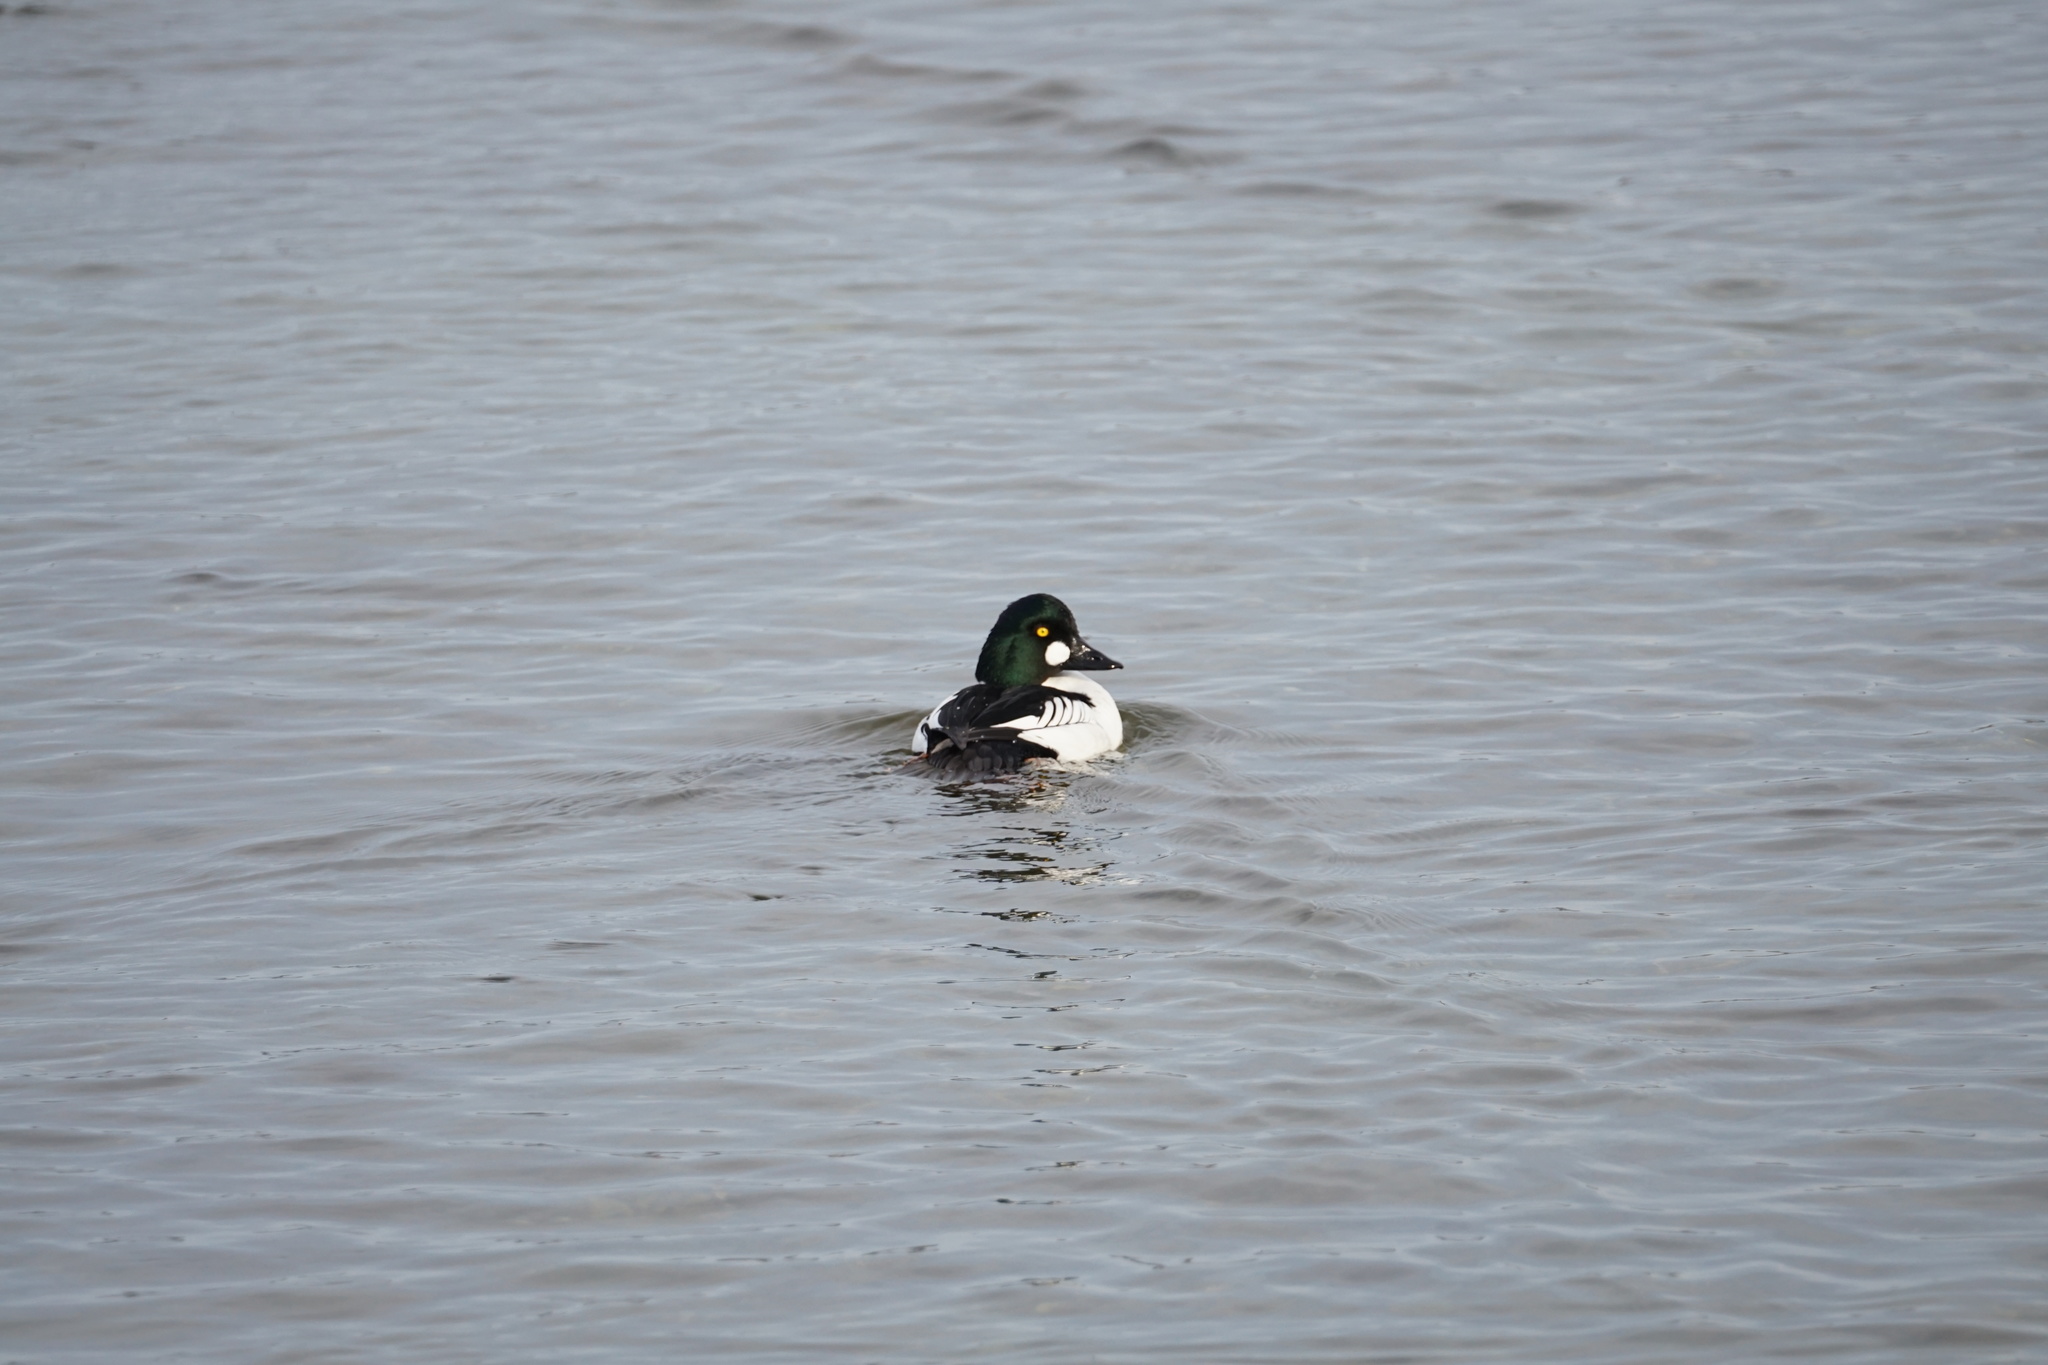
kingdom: Animalia
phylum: Chordata
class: Aves
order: Anseriformes
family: Anatidae
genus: Bucephala
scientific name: Bucephala clangula
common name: Common goldeneye
